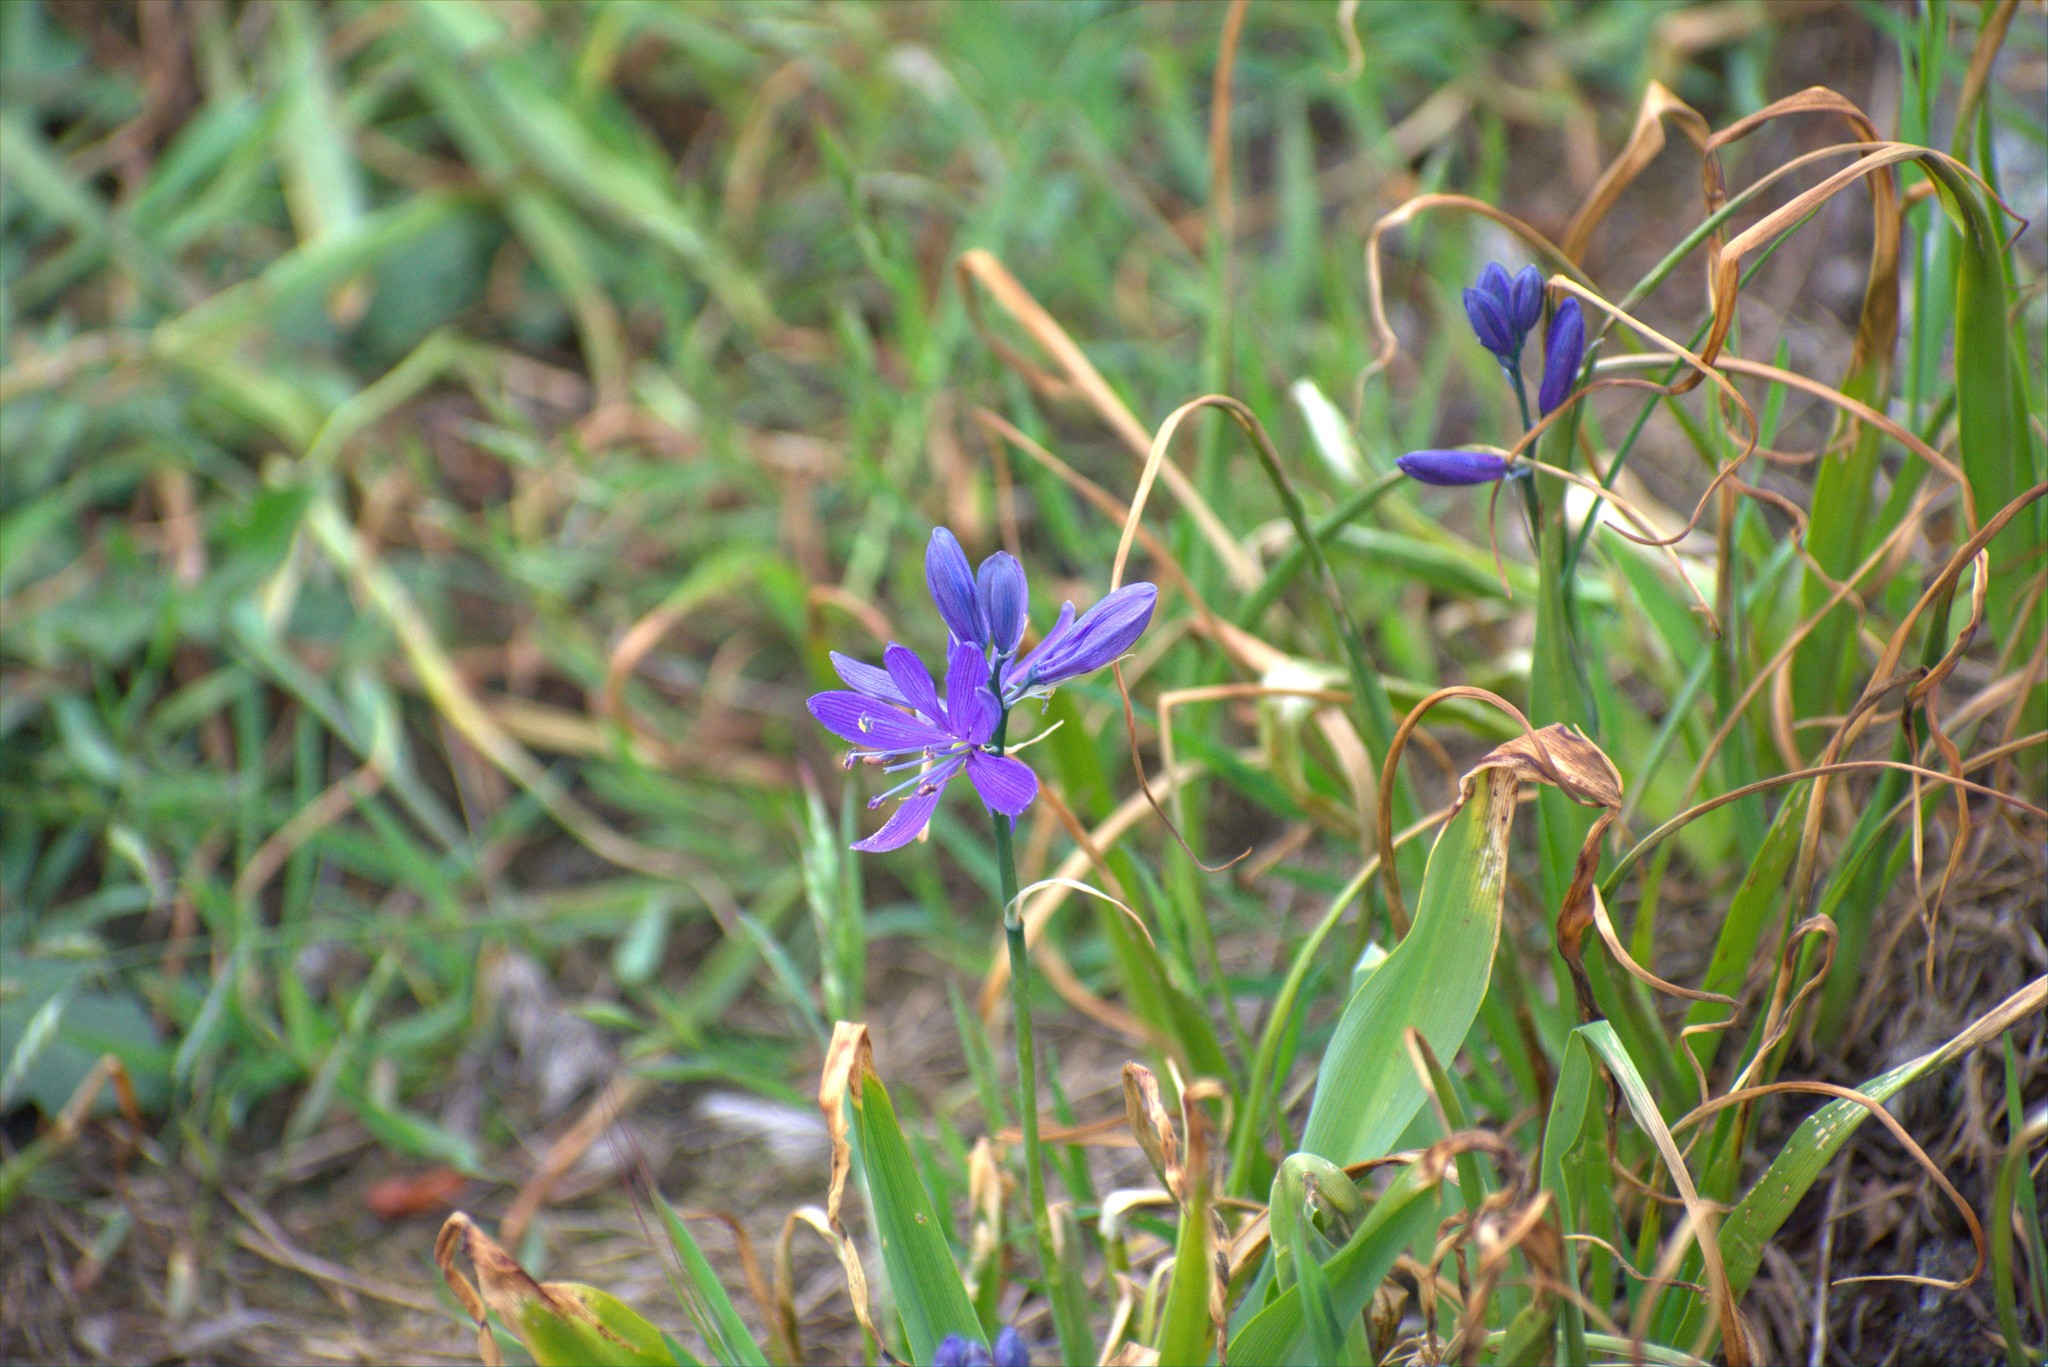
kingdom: Plantae
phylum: Tracheophyta
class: Liliopsida
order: Asparagales
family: Asparagaceae
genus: Camassia
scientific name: Camassia quamash
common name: Common camas
